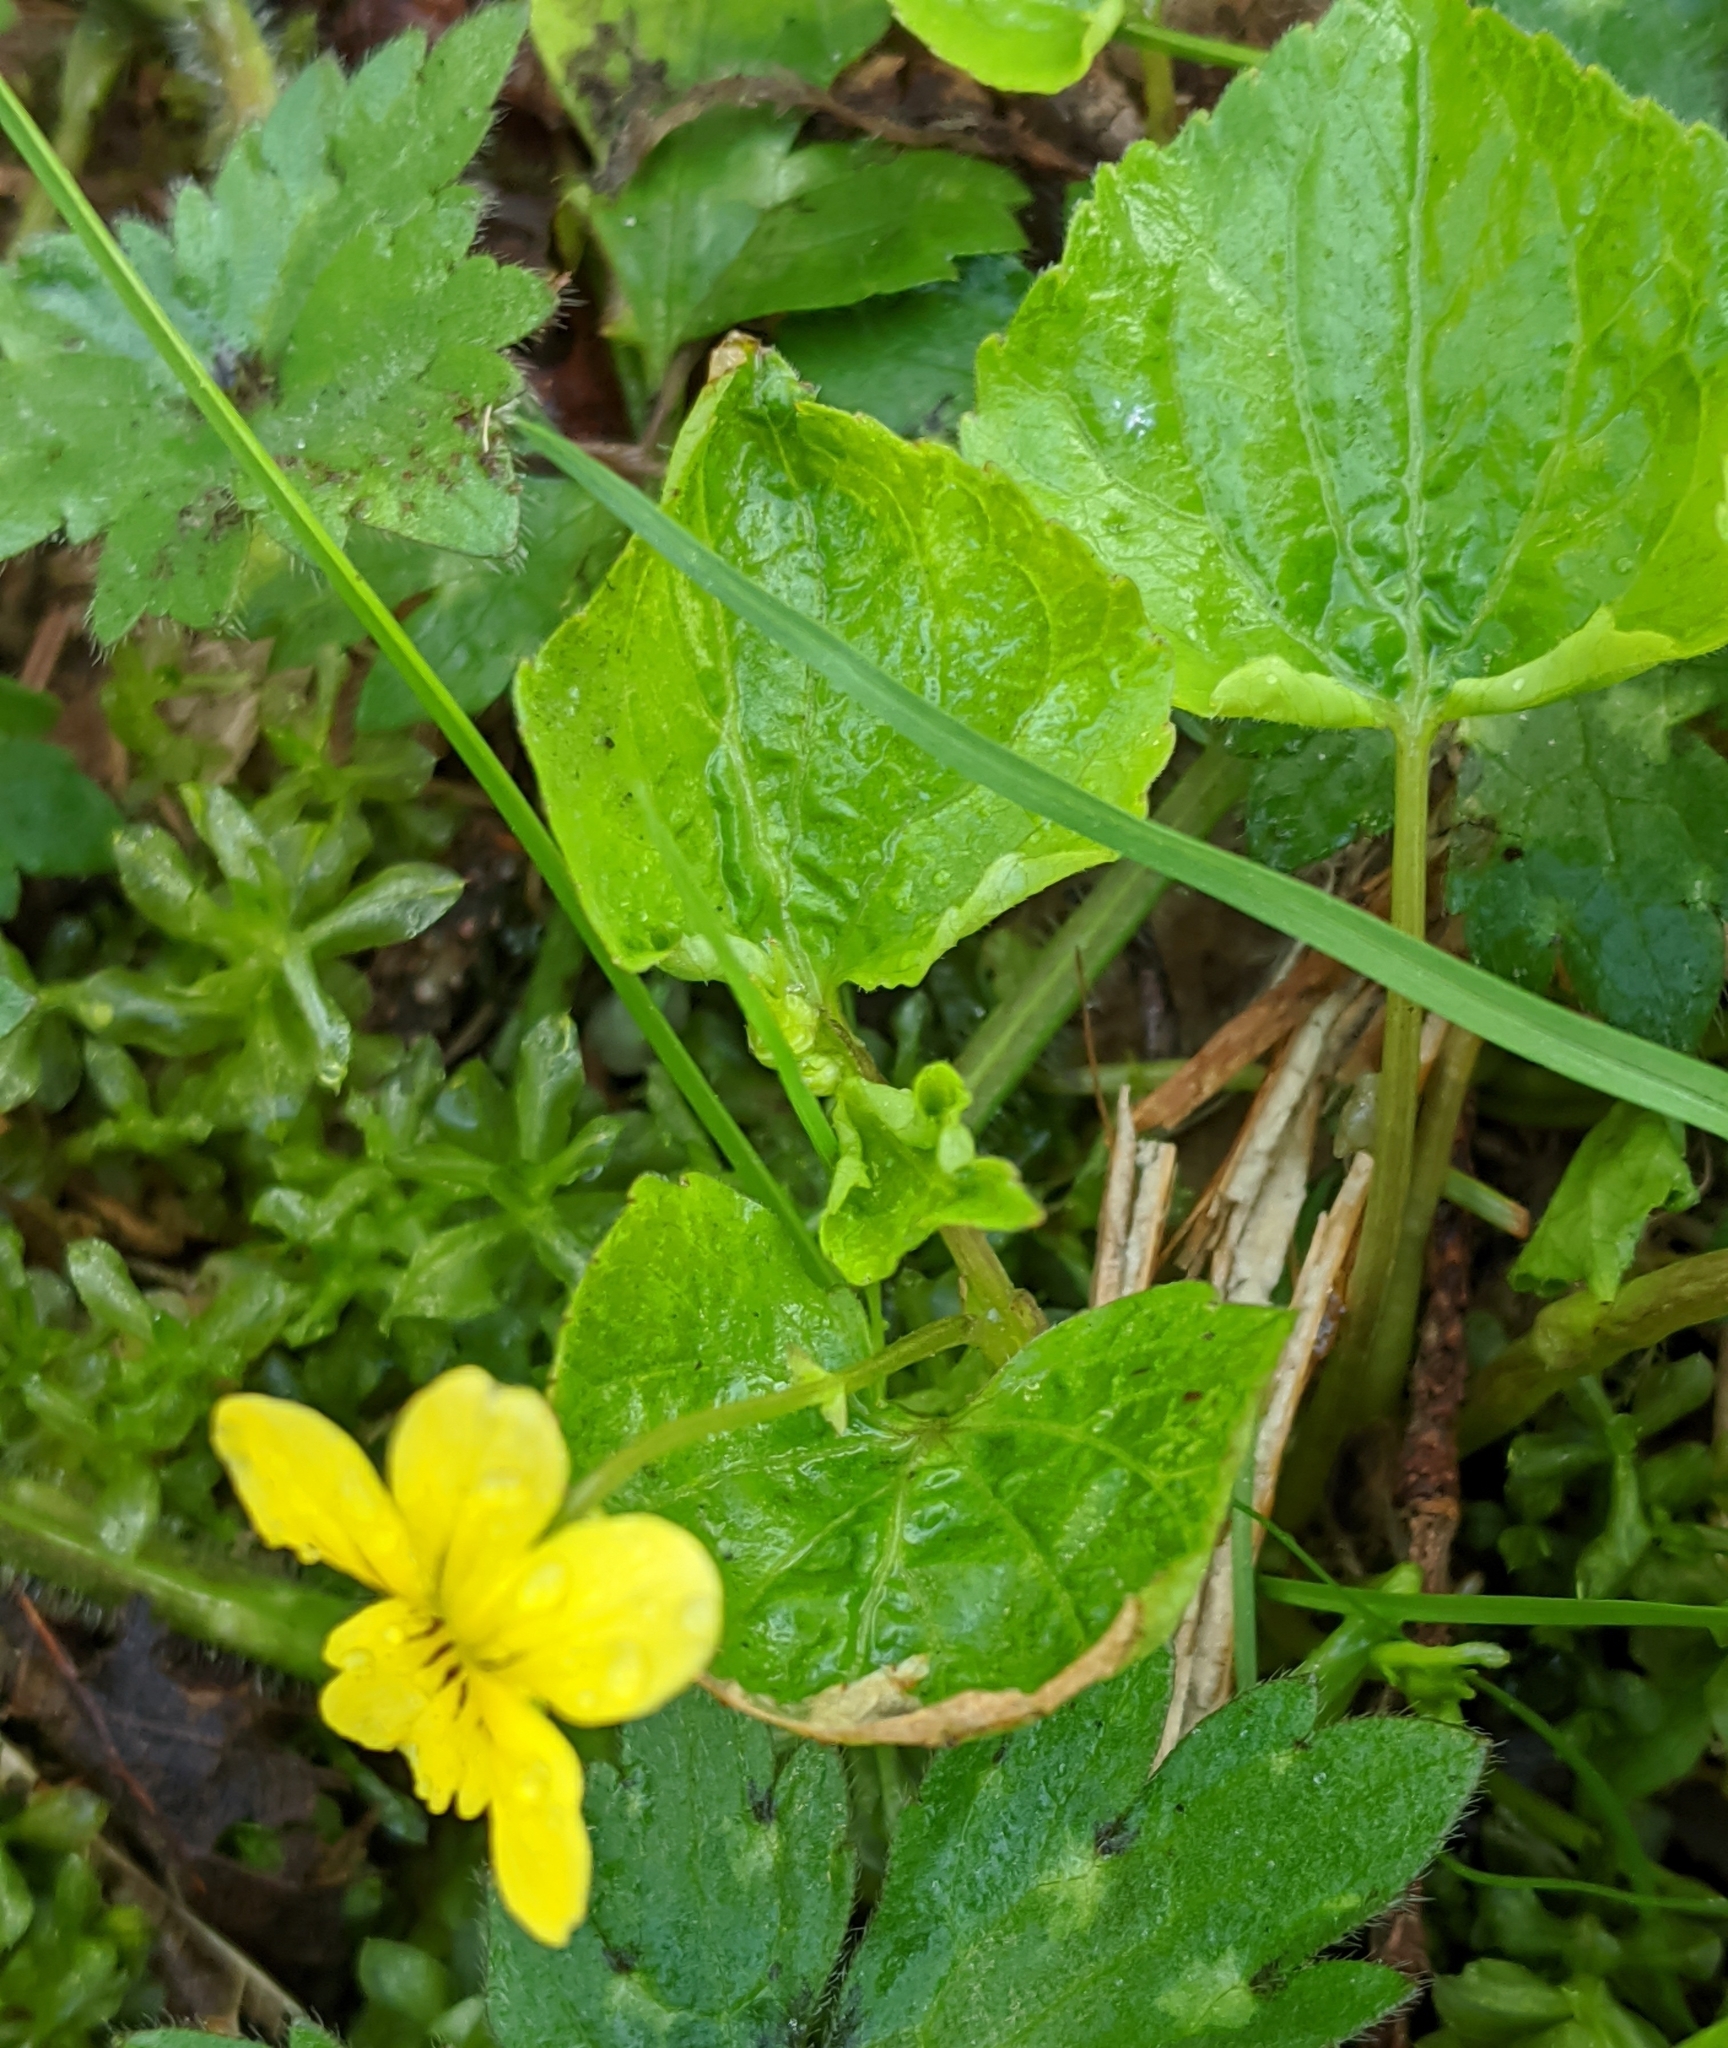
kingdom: Plantae
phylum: Tracheophyta
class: Magnoliopsida
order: Malpighiales
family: Violaceae
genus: Viola
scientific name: Viola glabella
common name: Stream violet
